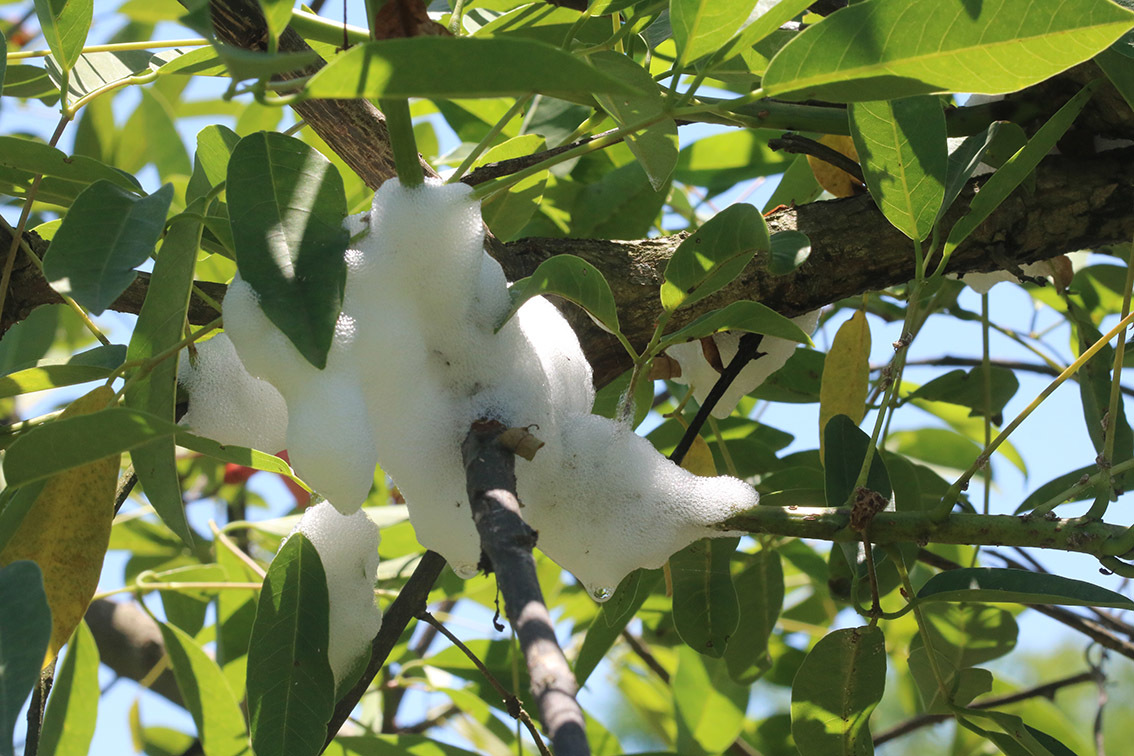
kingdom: Animalia
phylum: Arthropoda
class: Insecta
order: Hemiptera
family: Aphrophoridae
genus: Cephisus
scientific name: Cephisus siccifolius
